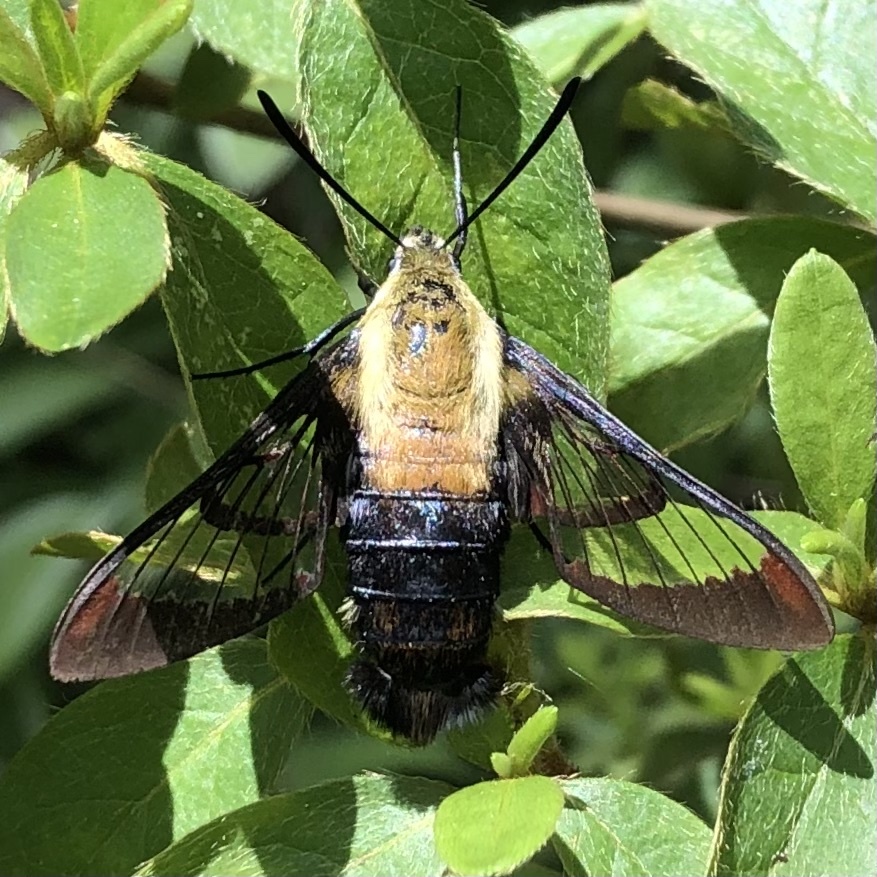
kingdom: Animalia
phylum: Arthropoda
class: Insecta
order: Lepidoptera
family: Sphingidae
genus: Hemaris
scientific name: Hemaris diffinis
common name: Bumblebee moth
